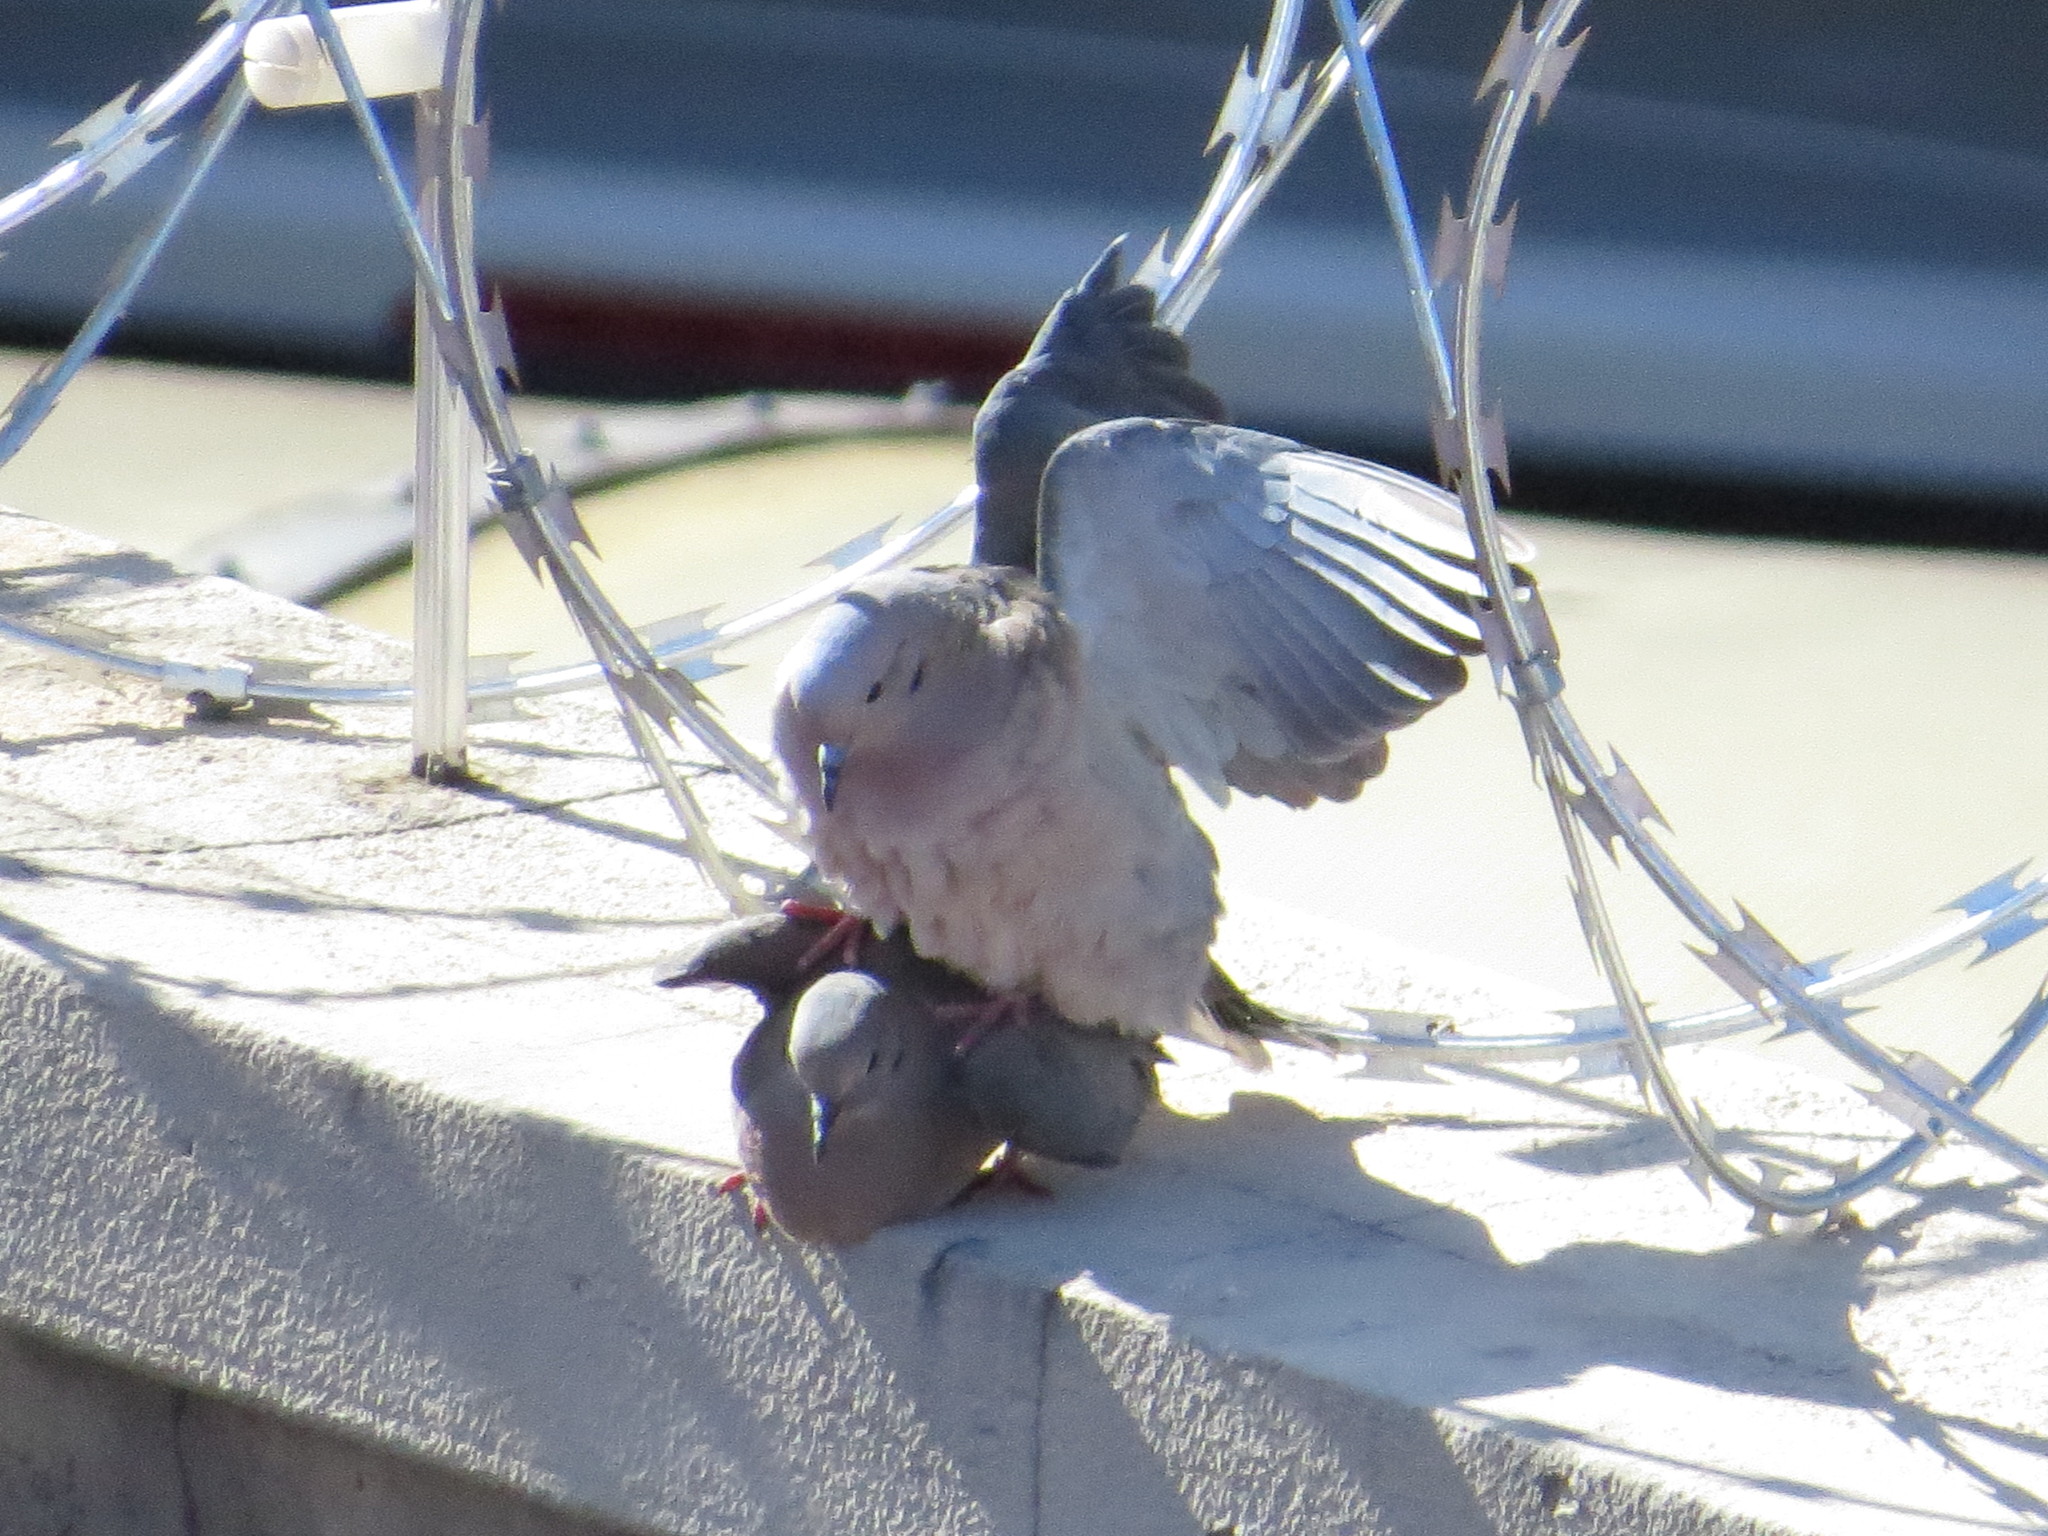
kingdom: Animalia
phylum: Chordata
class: Aves
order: Columbiformes
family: Columbidae
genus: Zenaida
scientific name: Zenaida auriculata
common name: Eared dove
